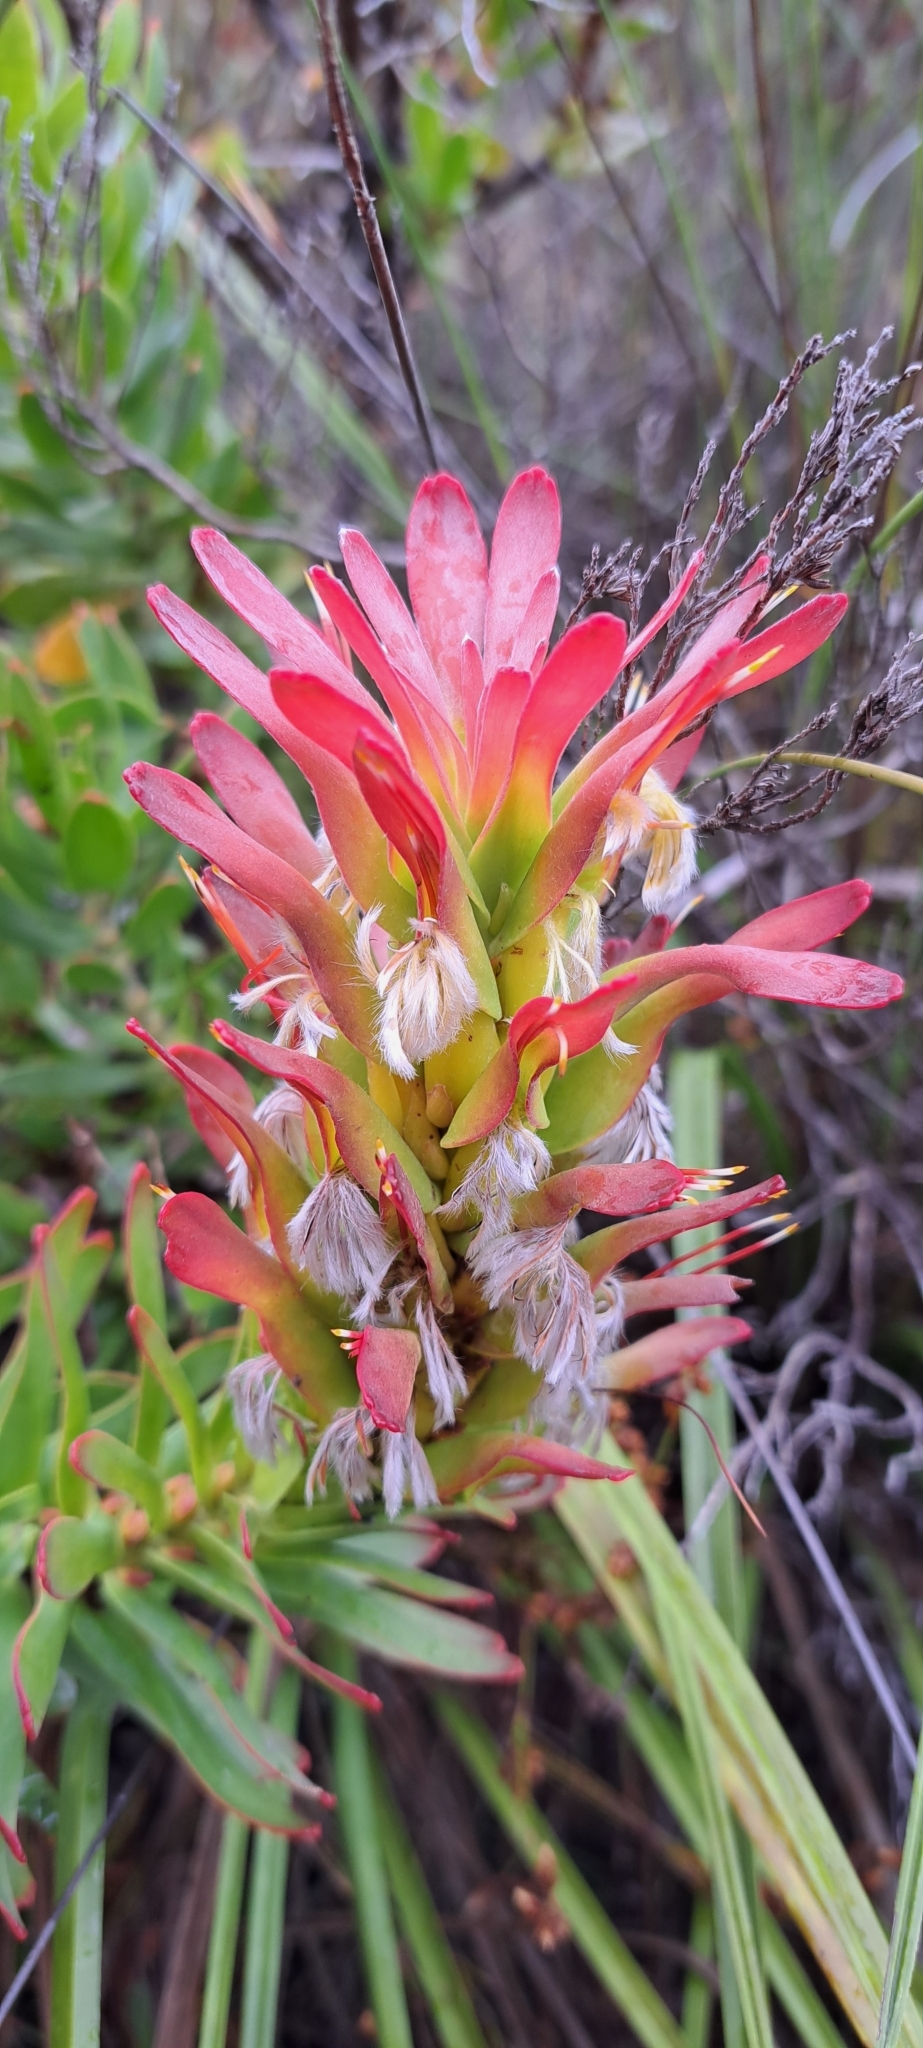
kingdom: Plantae
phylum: Tracheophyta
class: Magnoliopsida
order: Proteales
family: Proteaceae
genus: Mimetes
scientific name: Mimetes cucullatus
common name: Common pagoda
